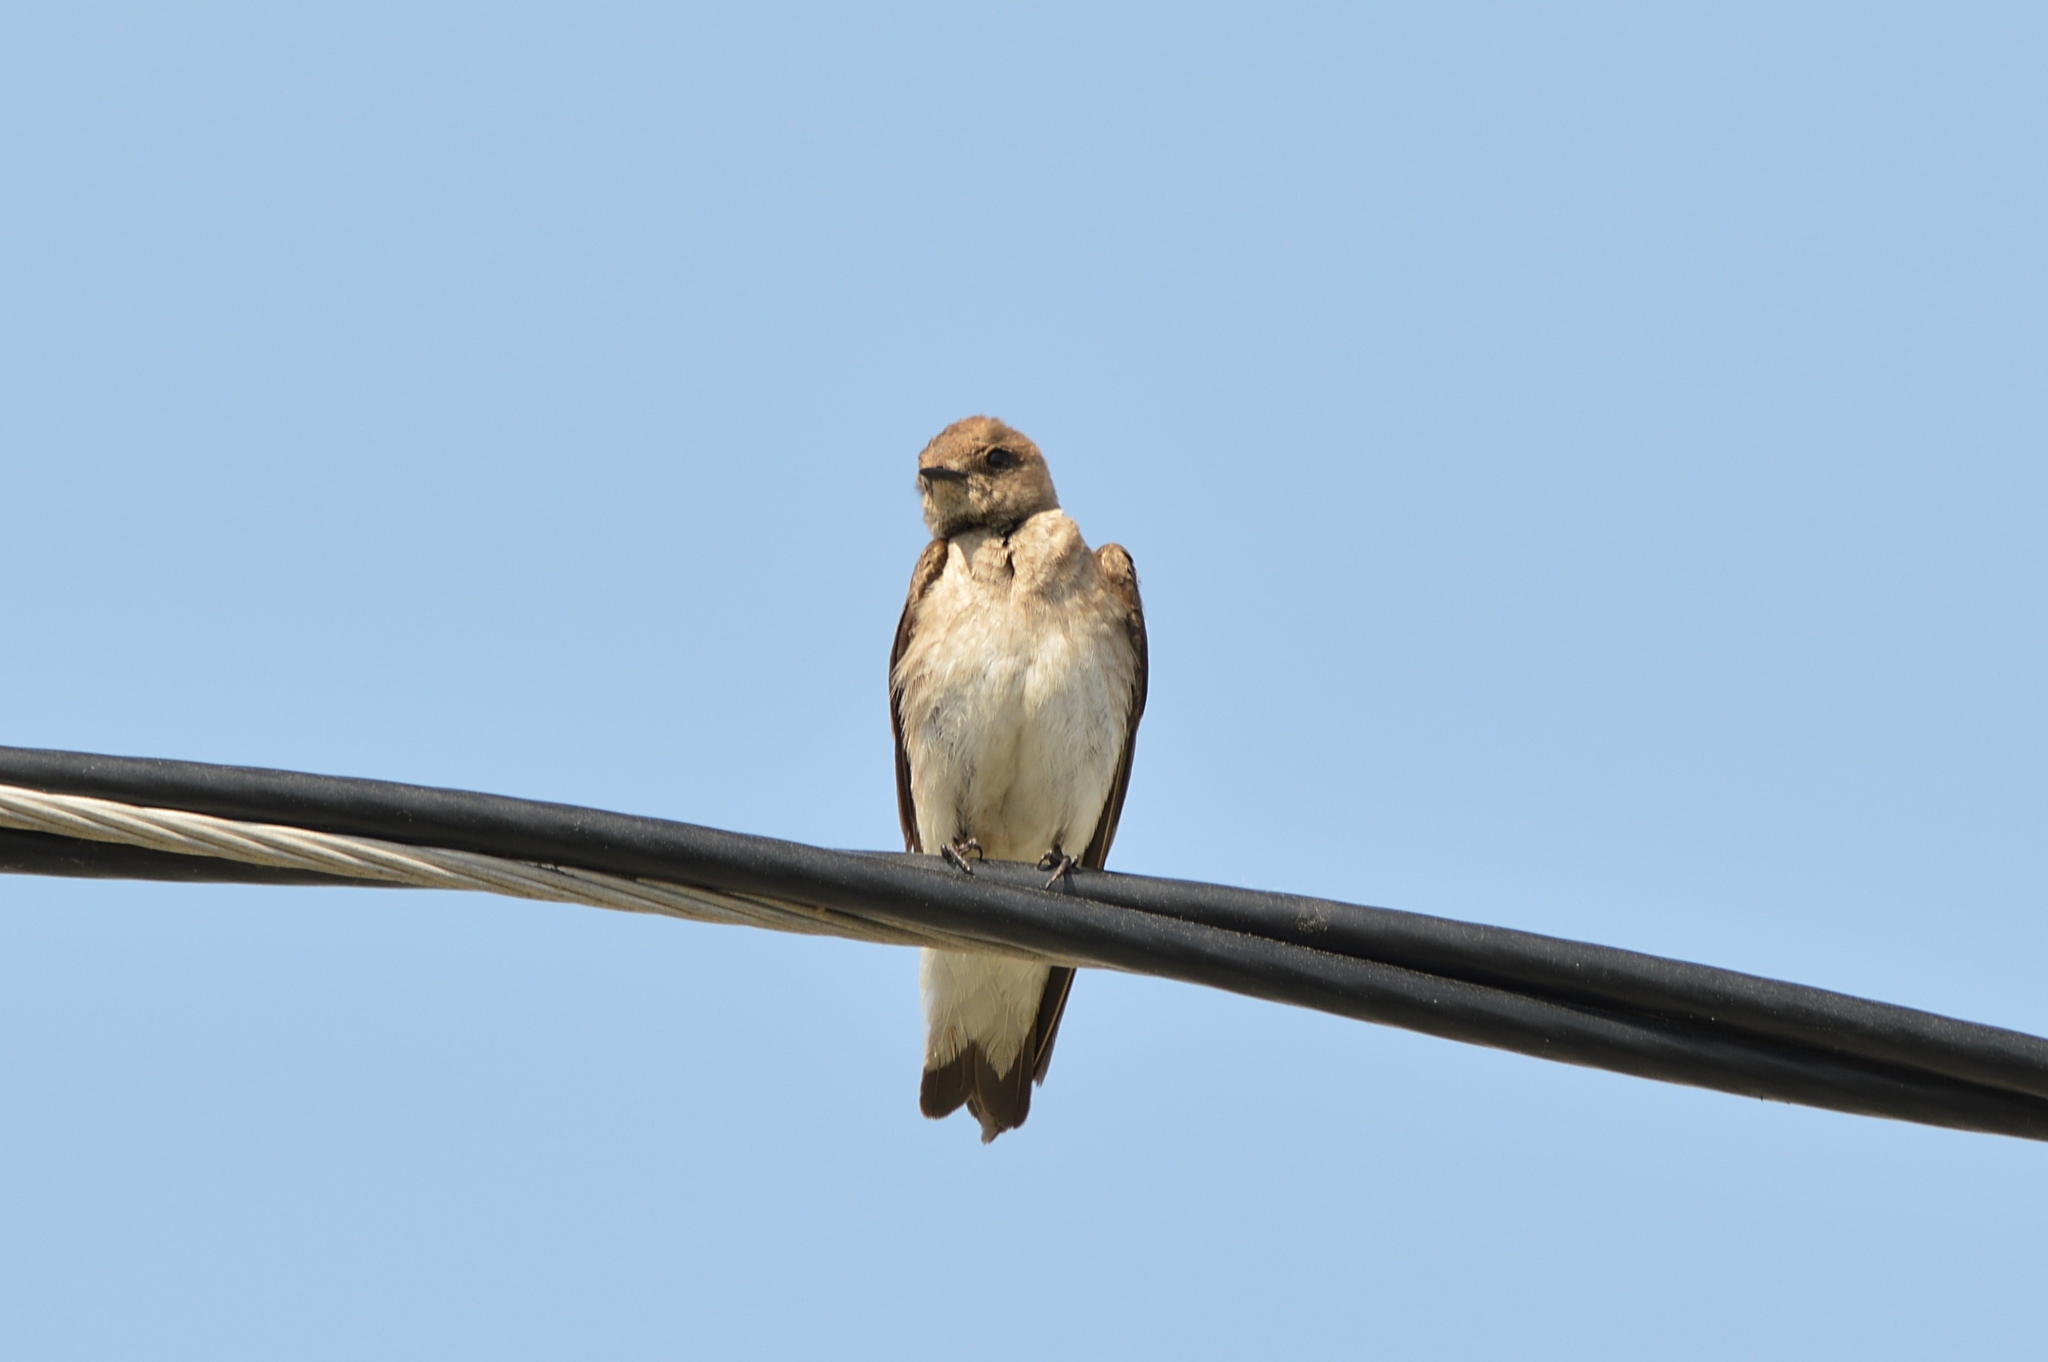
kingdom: Animalia
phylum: Chordata
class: Aves
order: Passeriformes
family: Hirundinidae
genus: Stelgidopteryx
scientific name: Stelgidopteryx serripennis
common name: Northern rough-winged swallow
